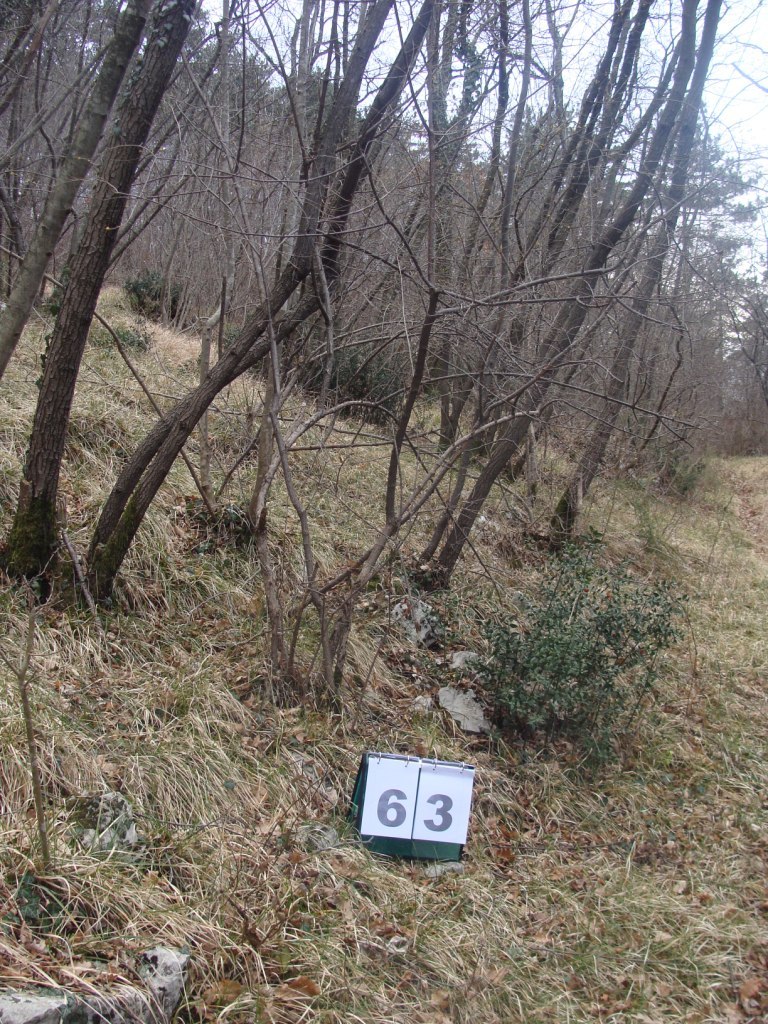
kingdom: Plantae
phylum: Tracheophyta
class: Magnoliopsida
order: Cornales
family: Cornaceae
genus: Cornus
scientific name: Cornus mas
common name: Cornelian-cherry
